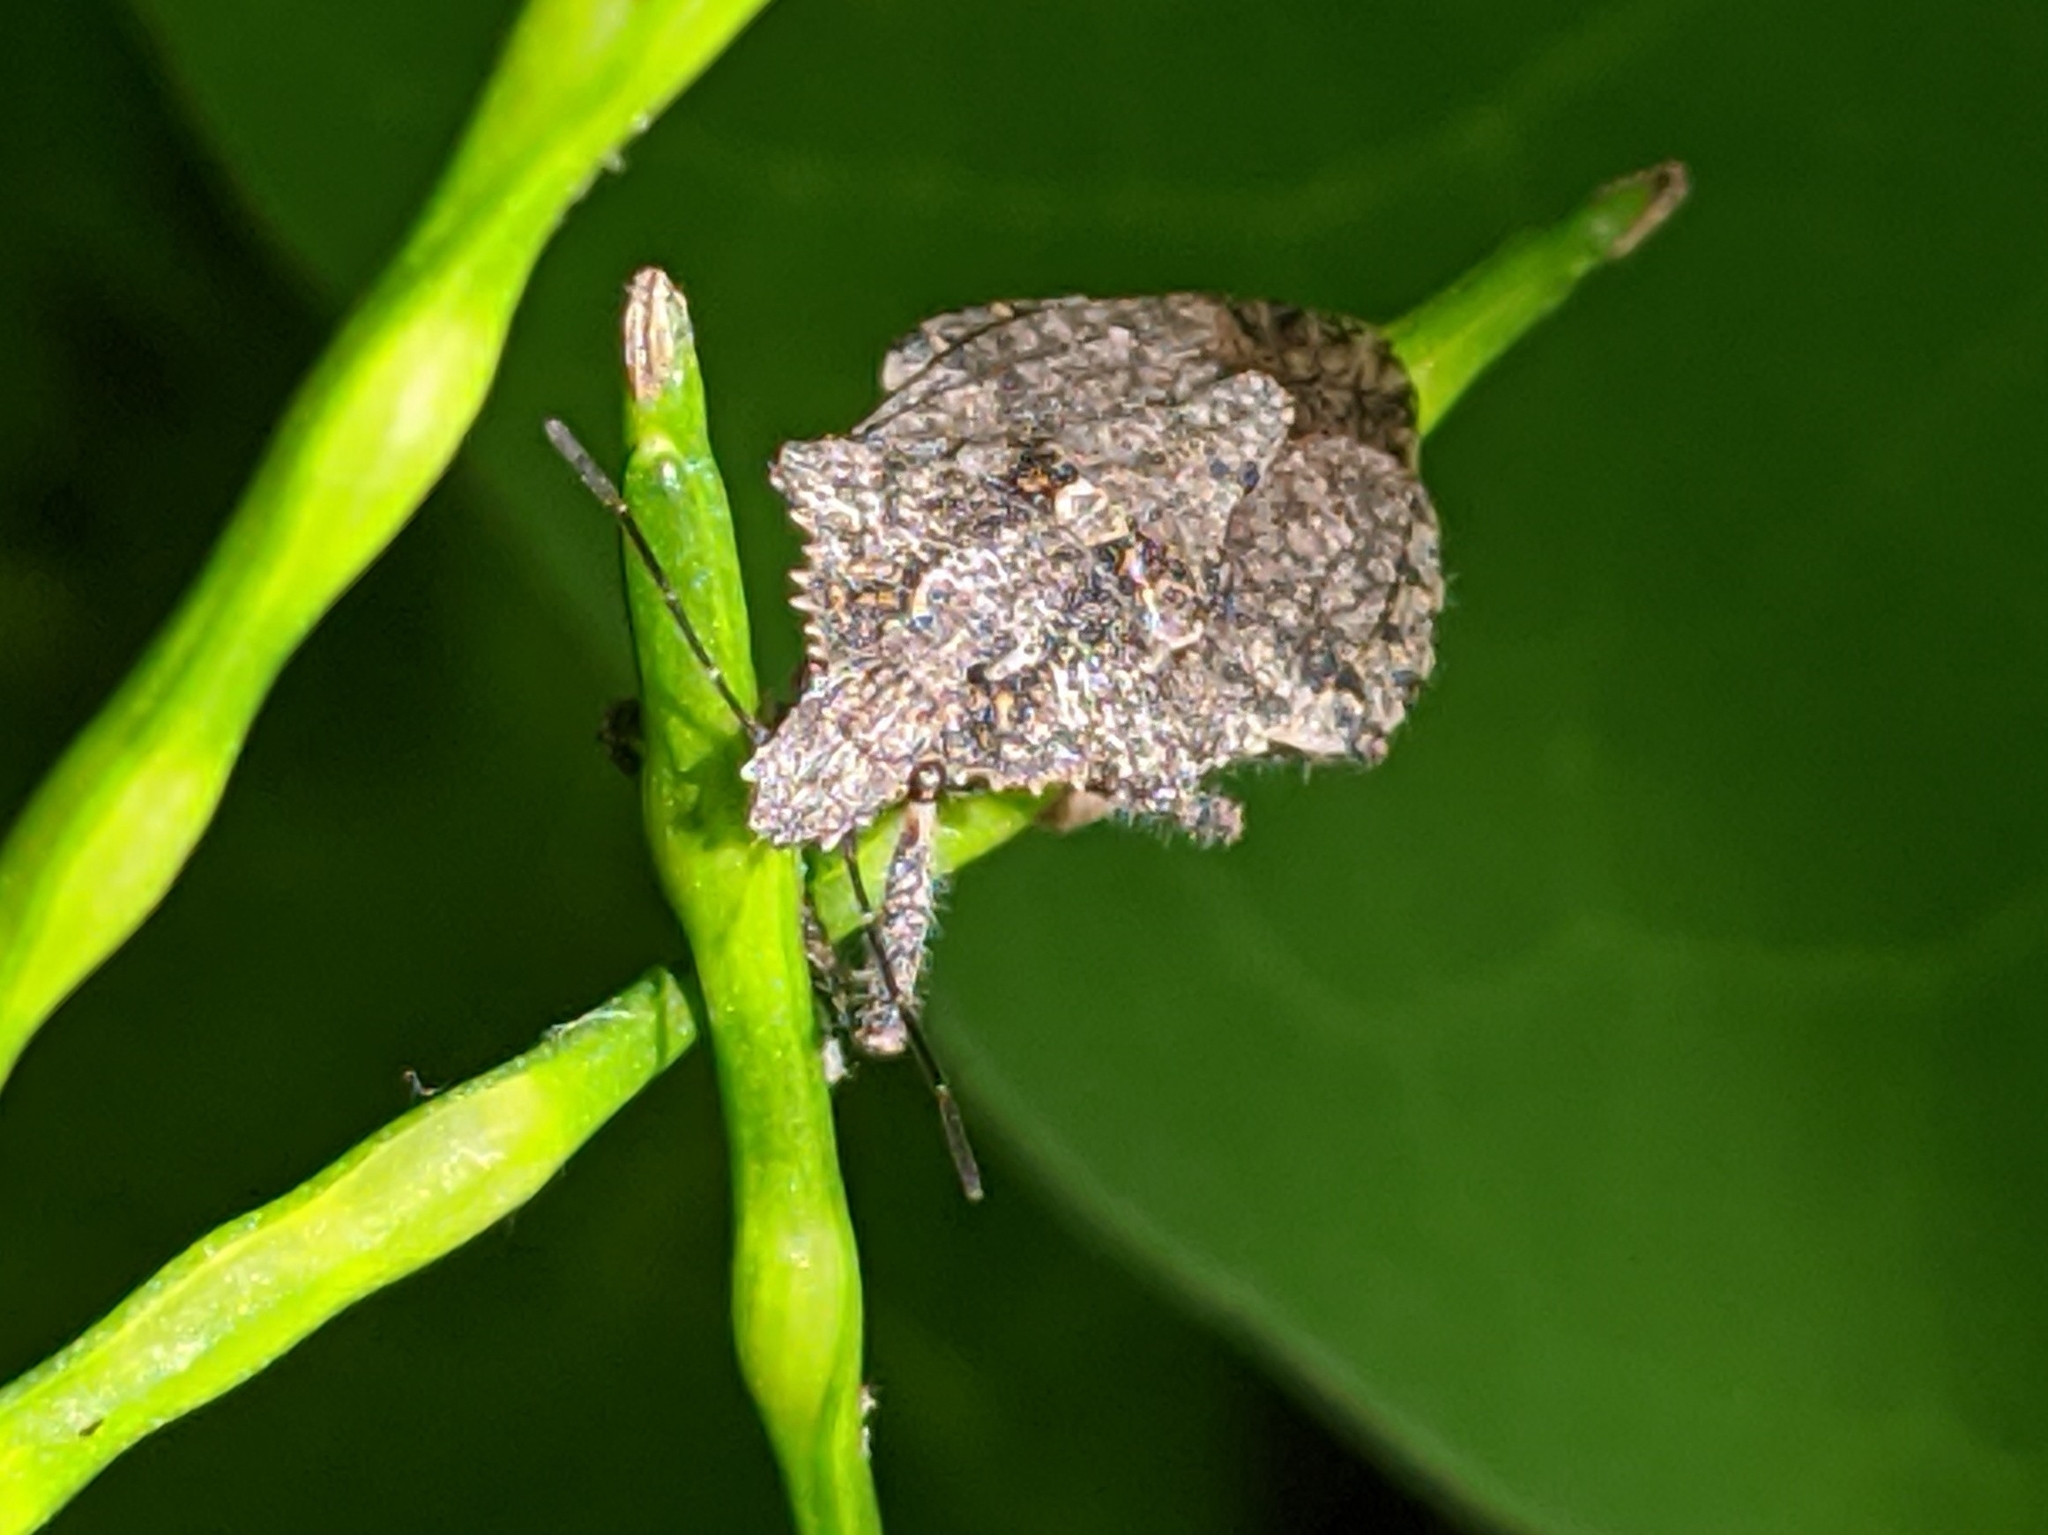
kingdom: Animalia
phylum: Arthropoda
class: Insecta
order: Hemiptera
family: Pentatomidae
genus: Brochymena
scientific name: Brochymena arborea
